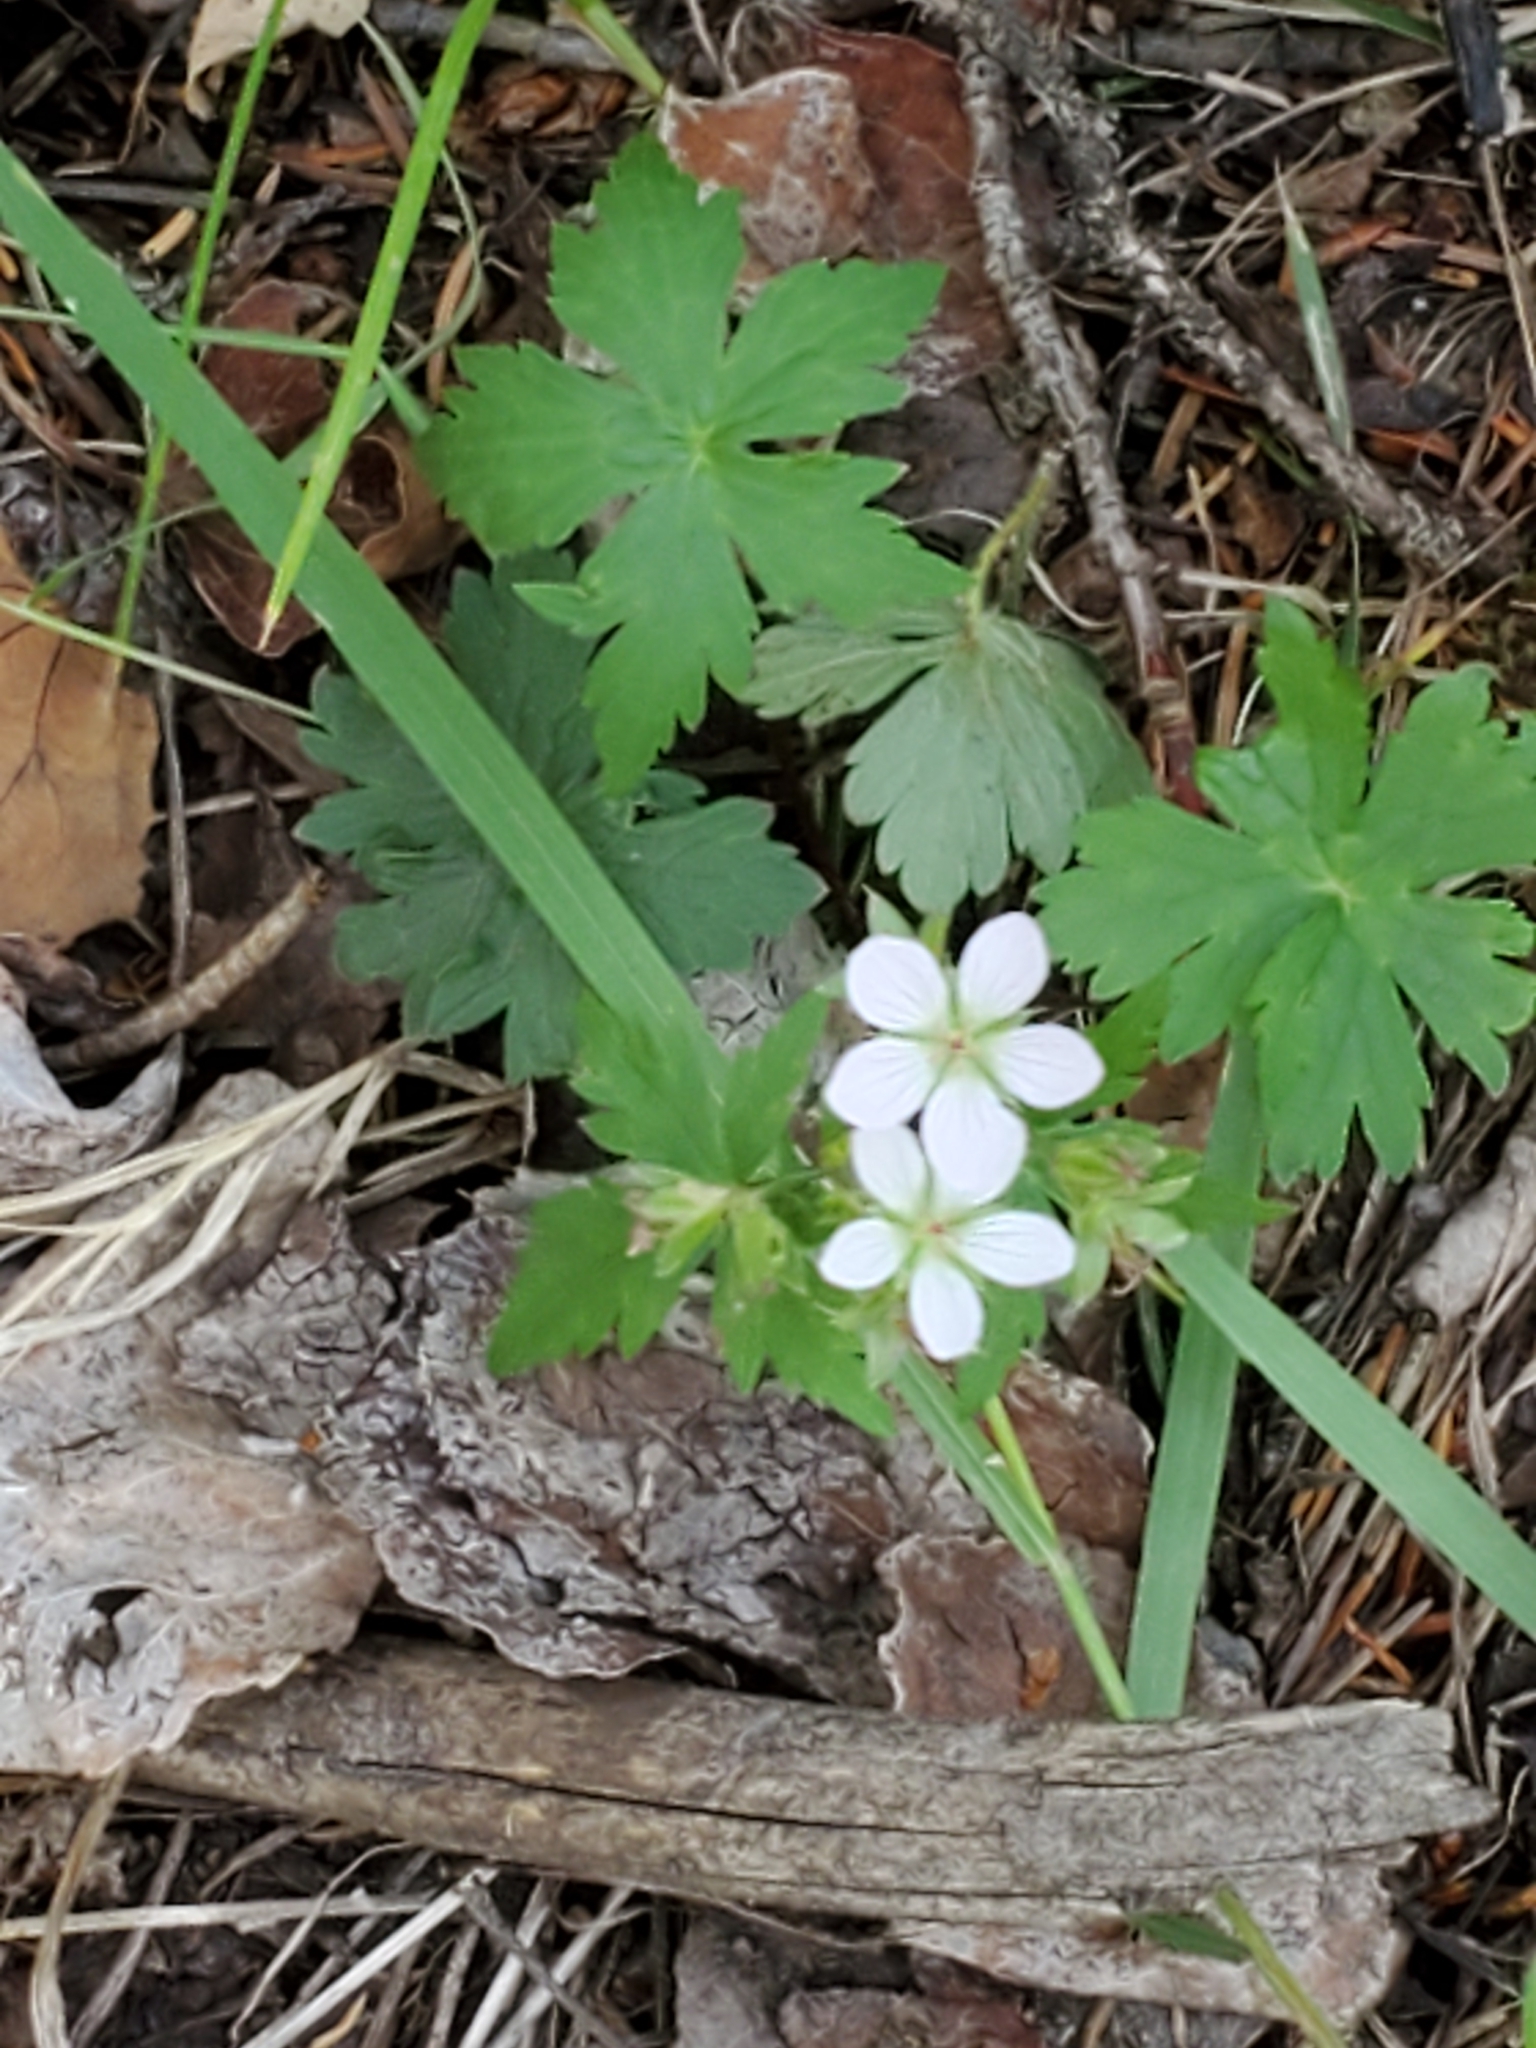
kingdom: Plantae
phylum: Tracheophyta
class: Magnoliopsida
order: Geraniales
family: Geraniaceae
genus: Geranium
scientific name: Geranium richardsonii
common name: Richardson's crane's-bill
